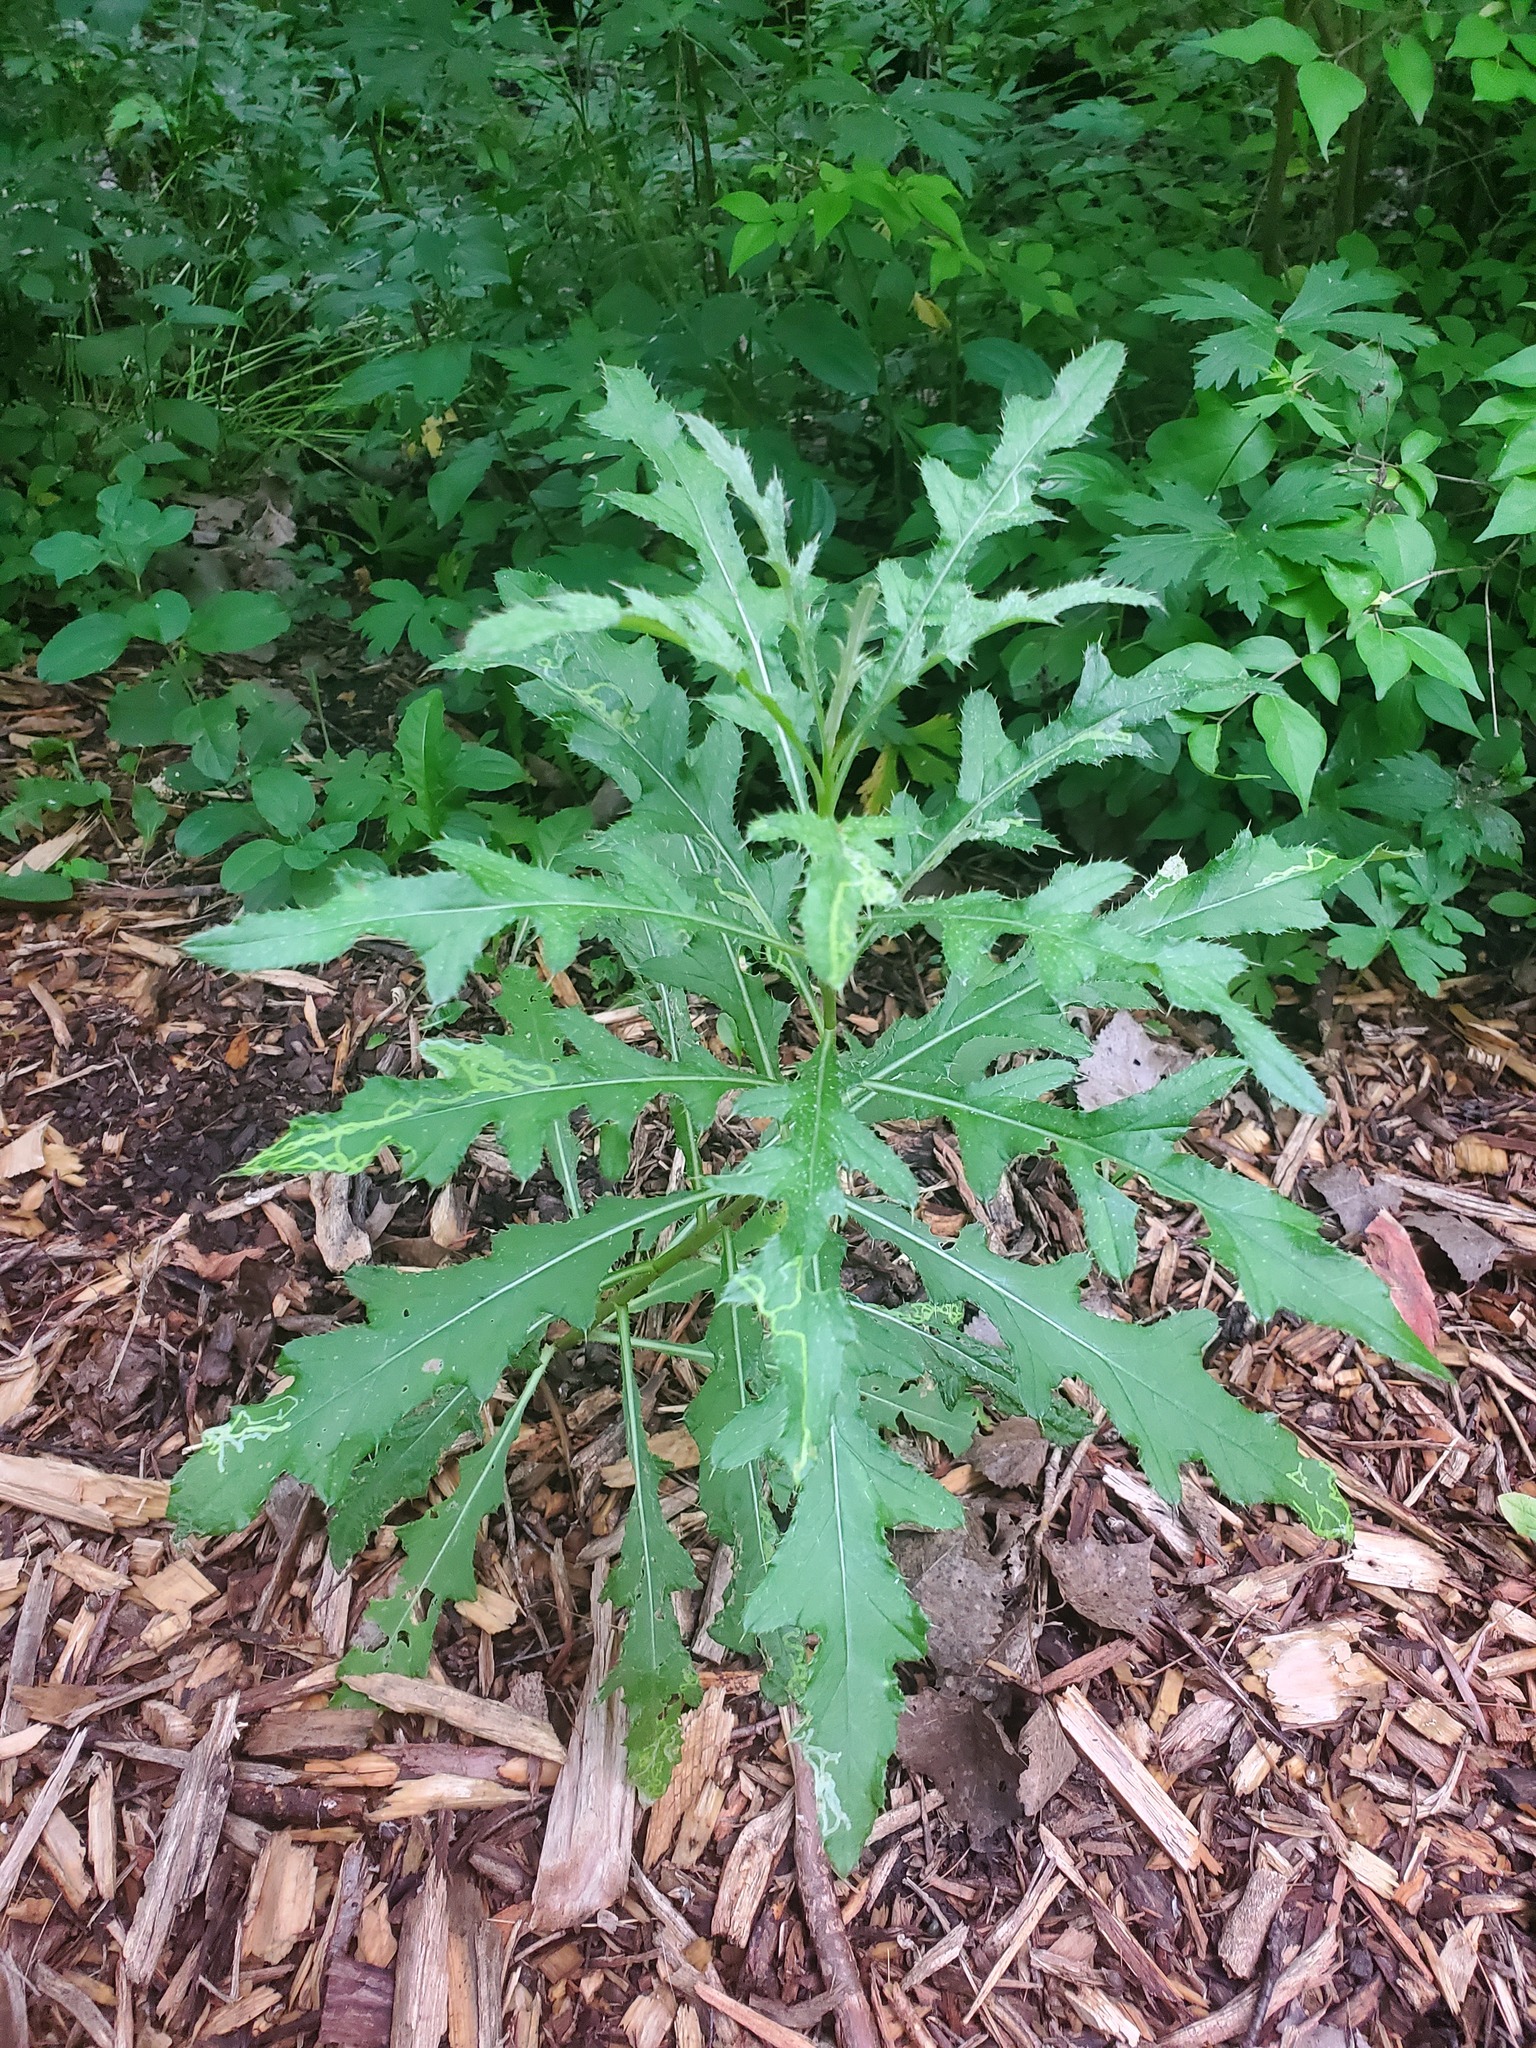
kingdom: Plantae
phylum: Tracheophyta
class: Magnoliopsida
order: Asterales
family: Asteraceae
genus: Cirsium
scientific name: Cirsium arvense
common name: Creeping thistle
